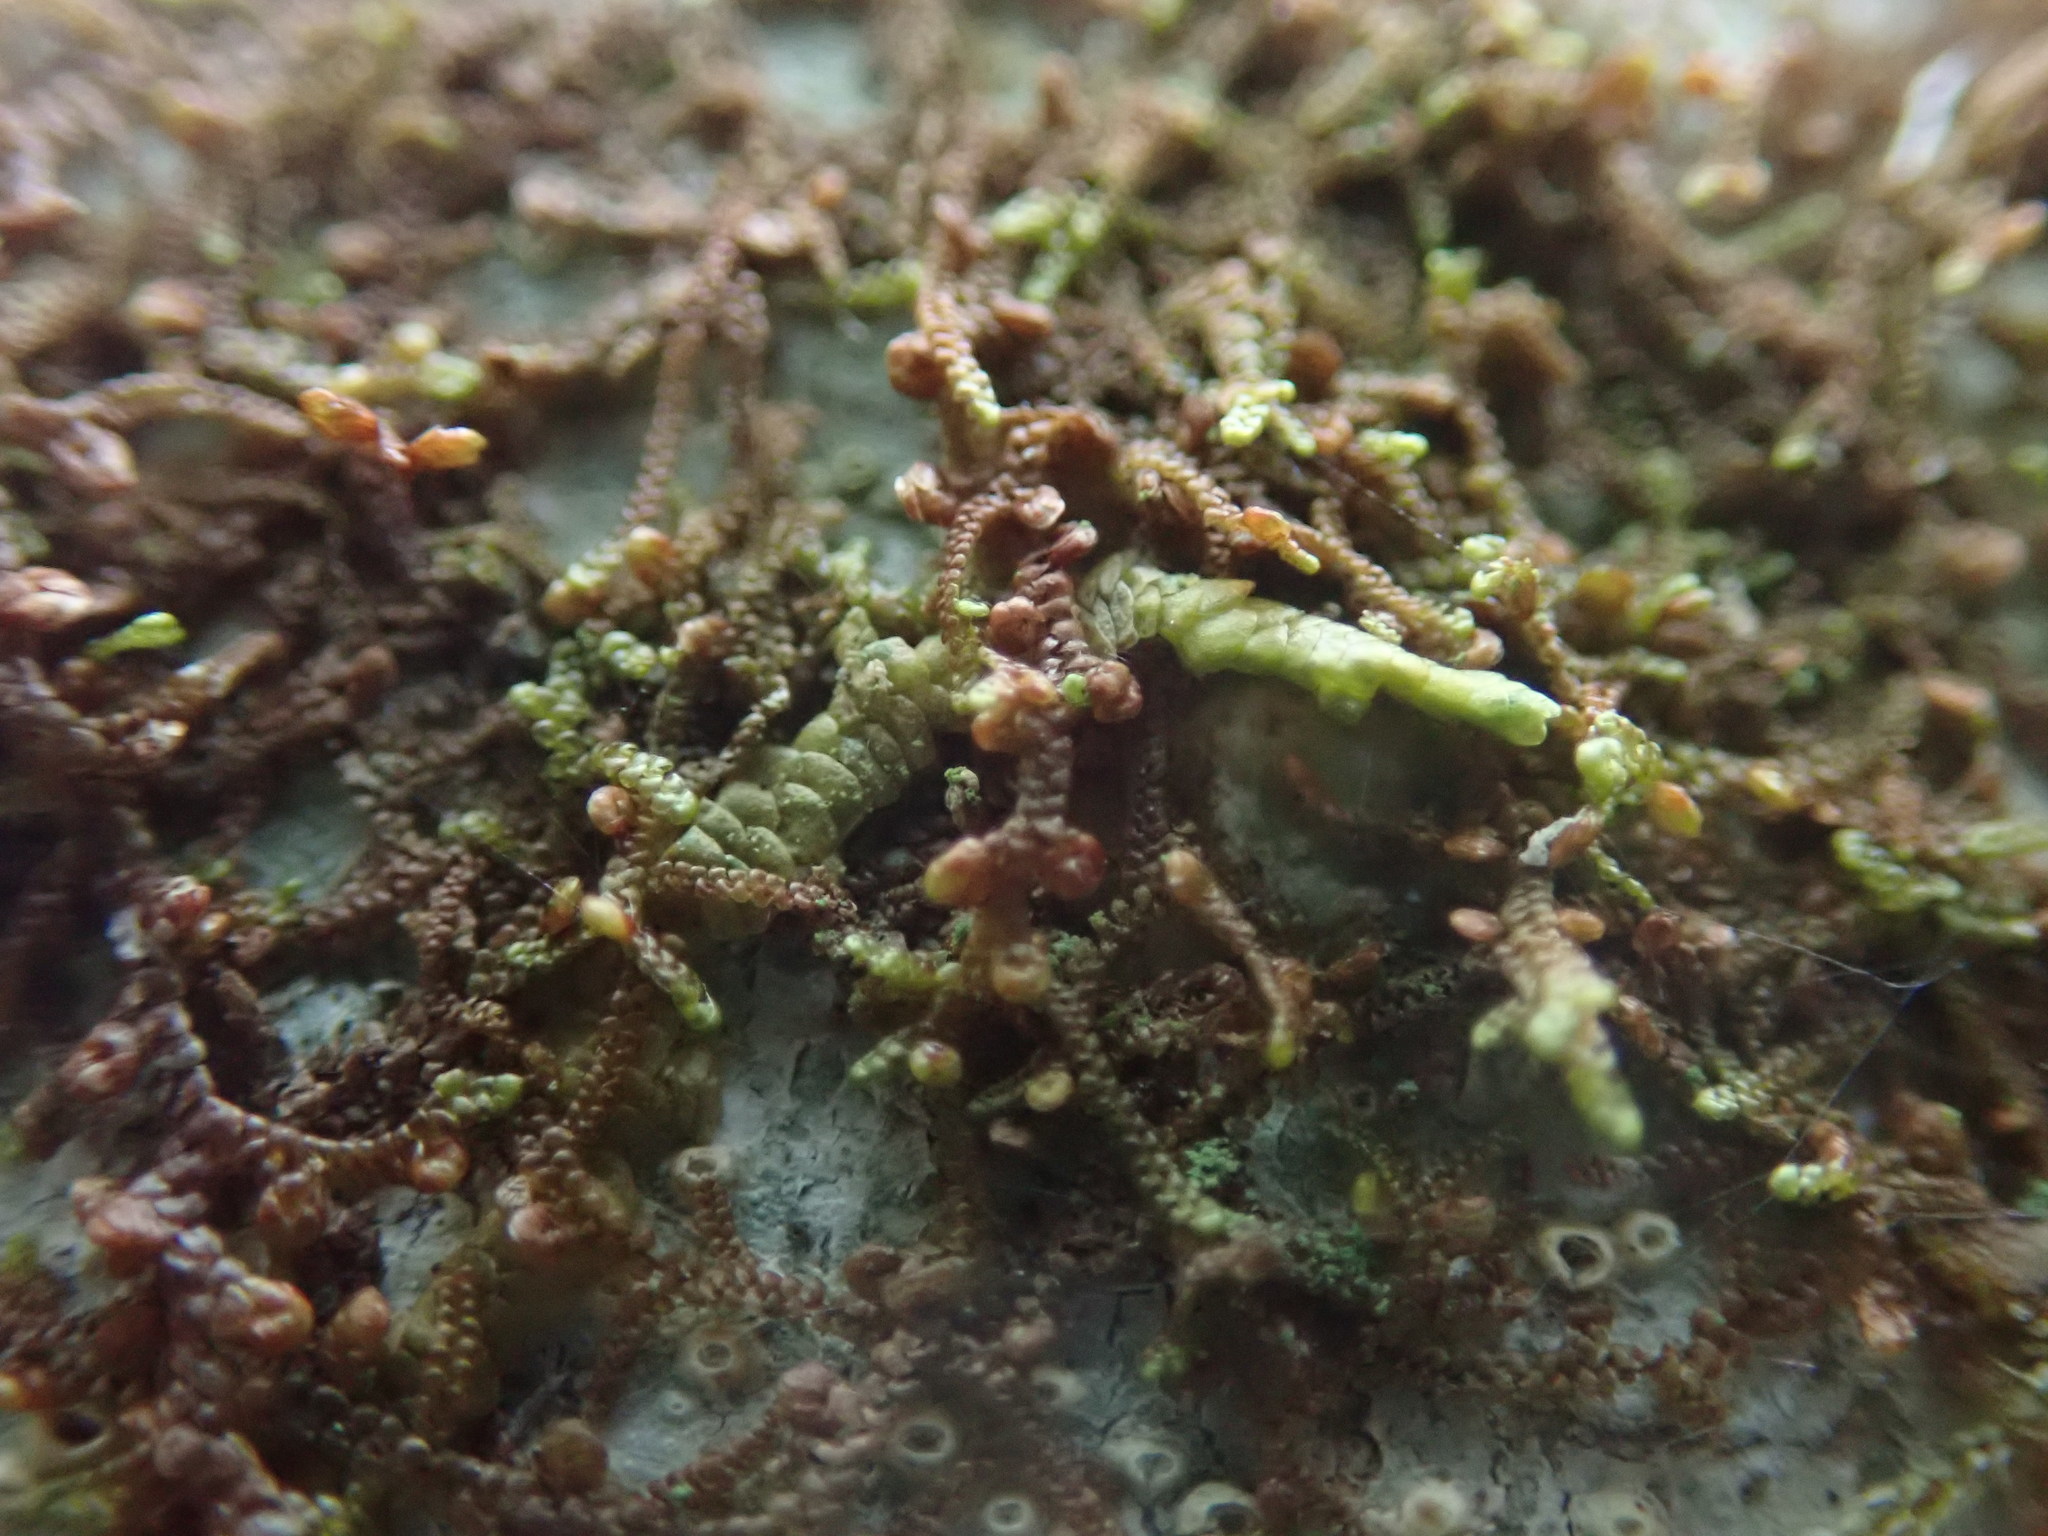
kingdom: Plantae
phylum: Marchantiophyta
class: Jungermanniopsida
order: Porellales
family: Frullaniaceae
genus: Frullania
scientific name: Frullania nisquallensis
